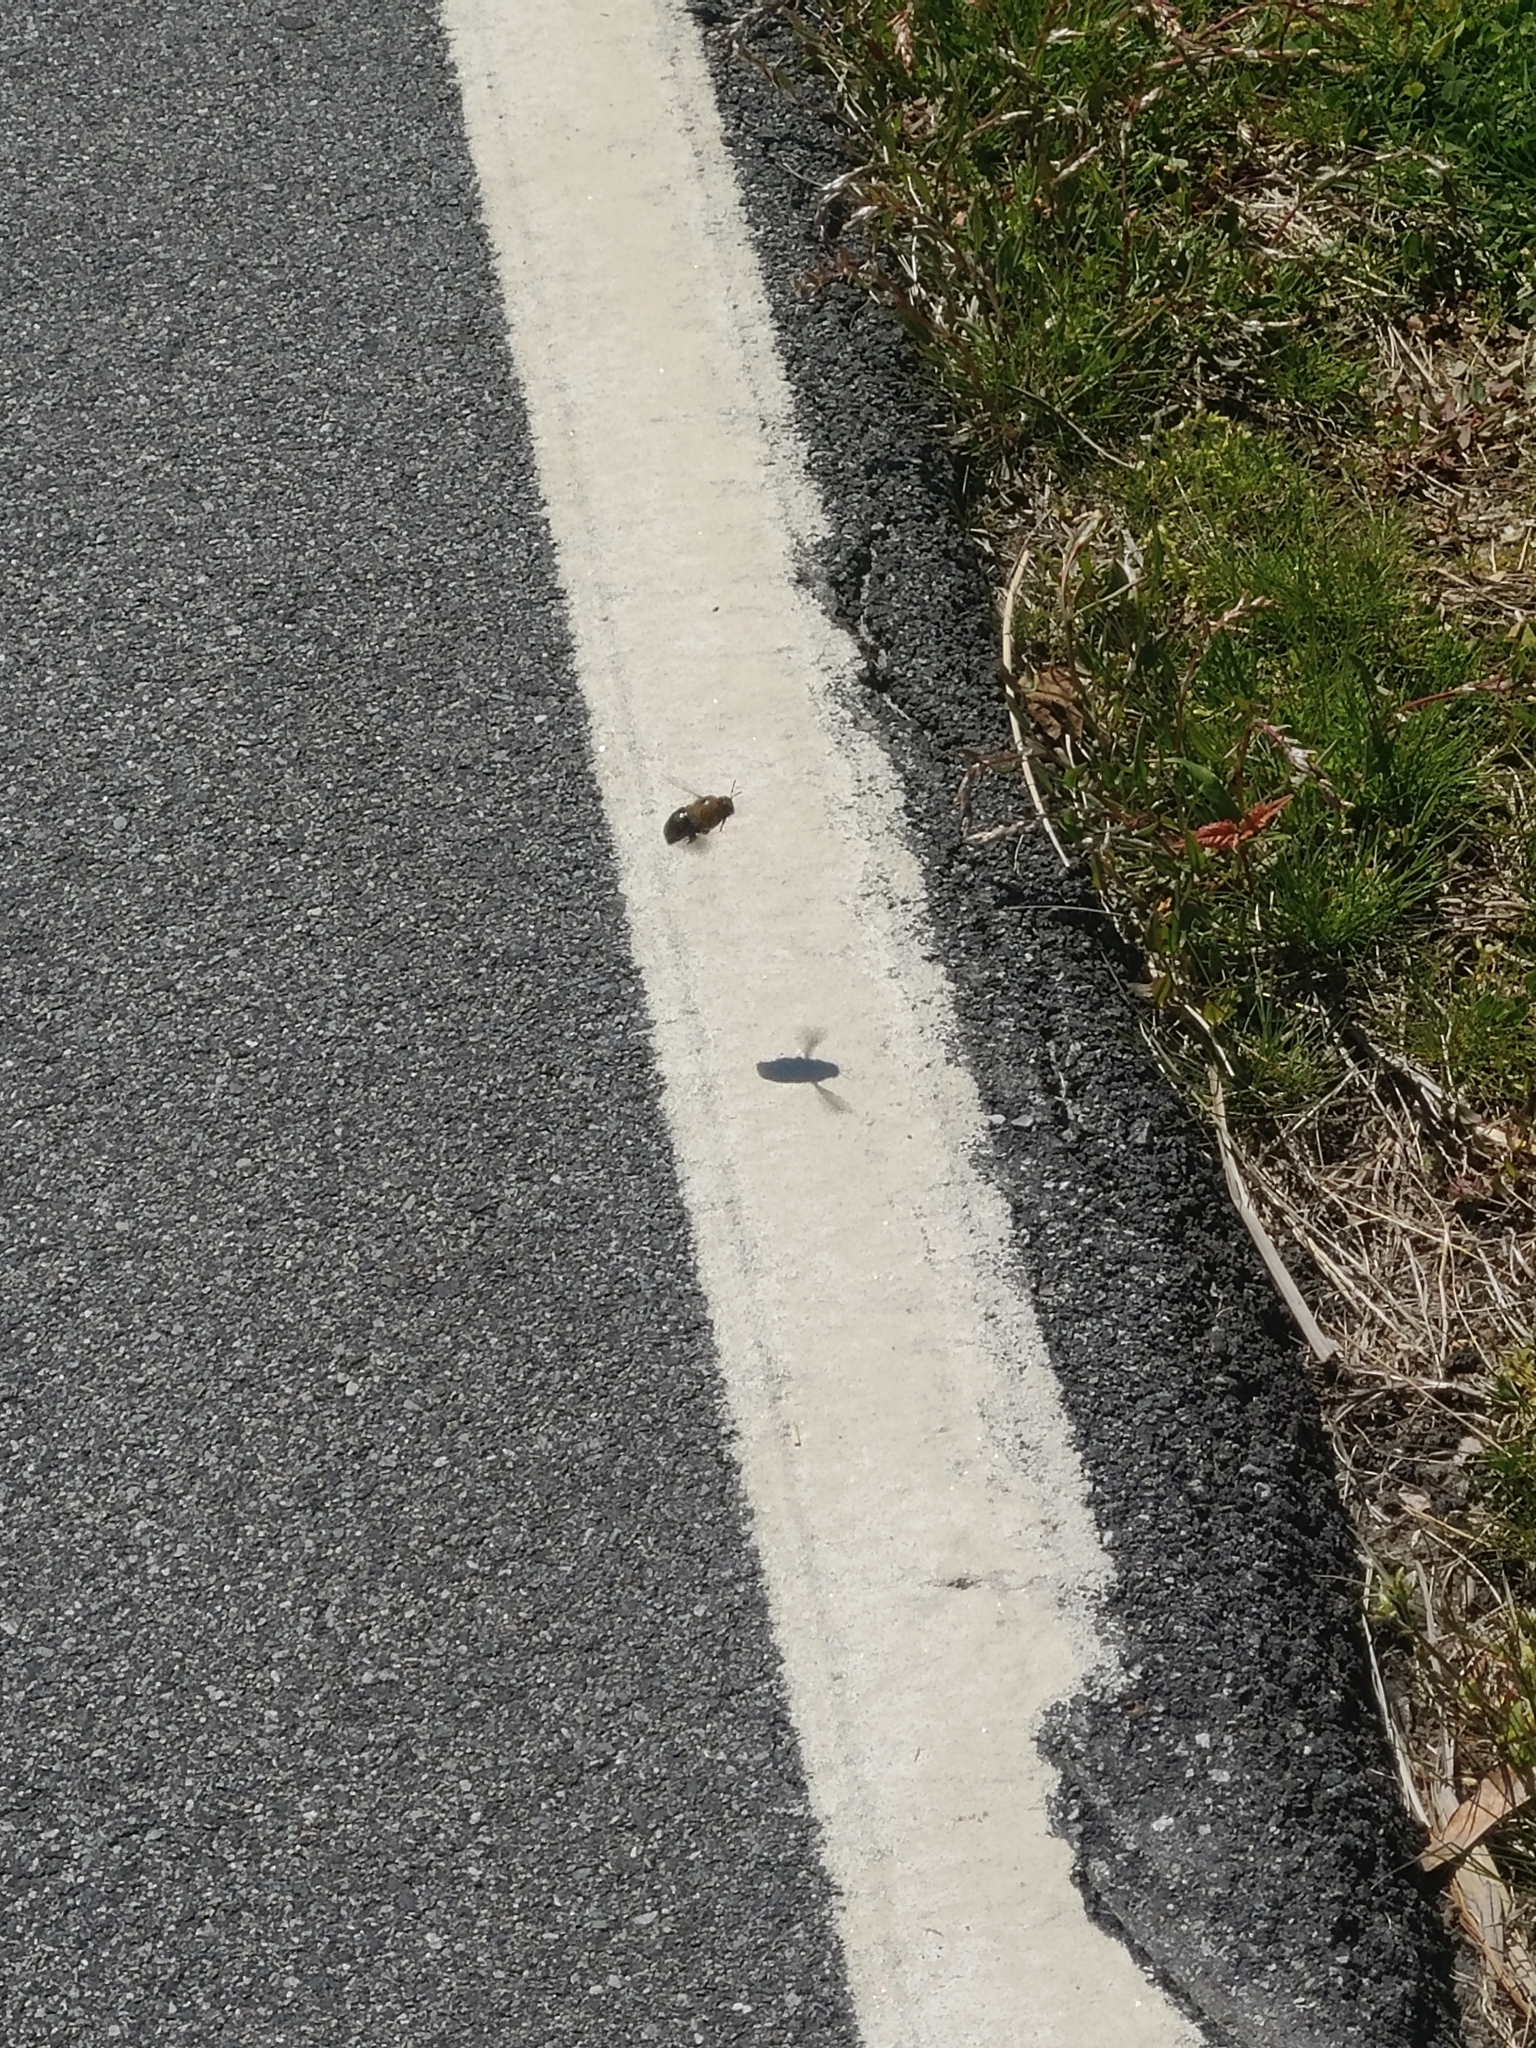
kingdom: Animalia
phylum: Arthropoda
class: Insecta
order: Hymenoptera
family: Apidae
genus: Xylocopa
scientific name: Xylocopa virginica
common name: Carpenter bee
